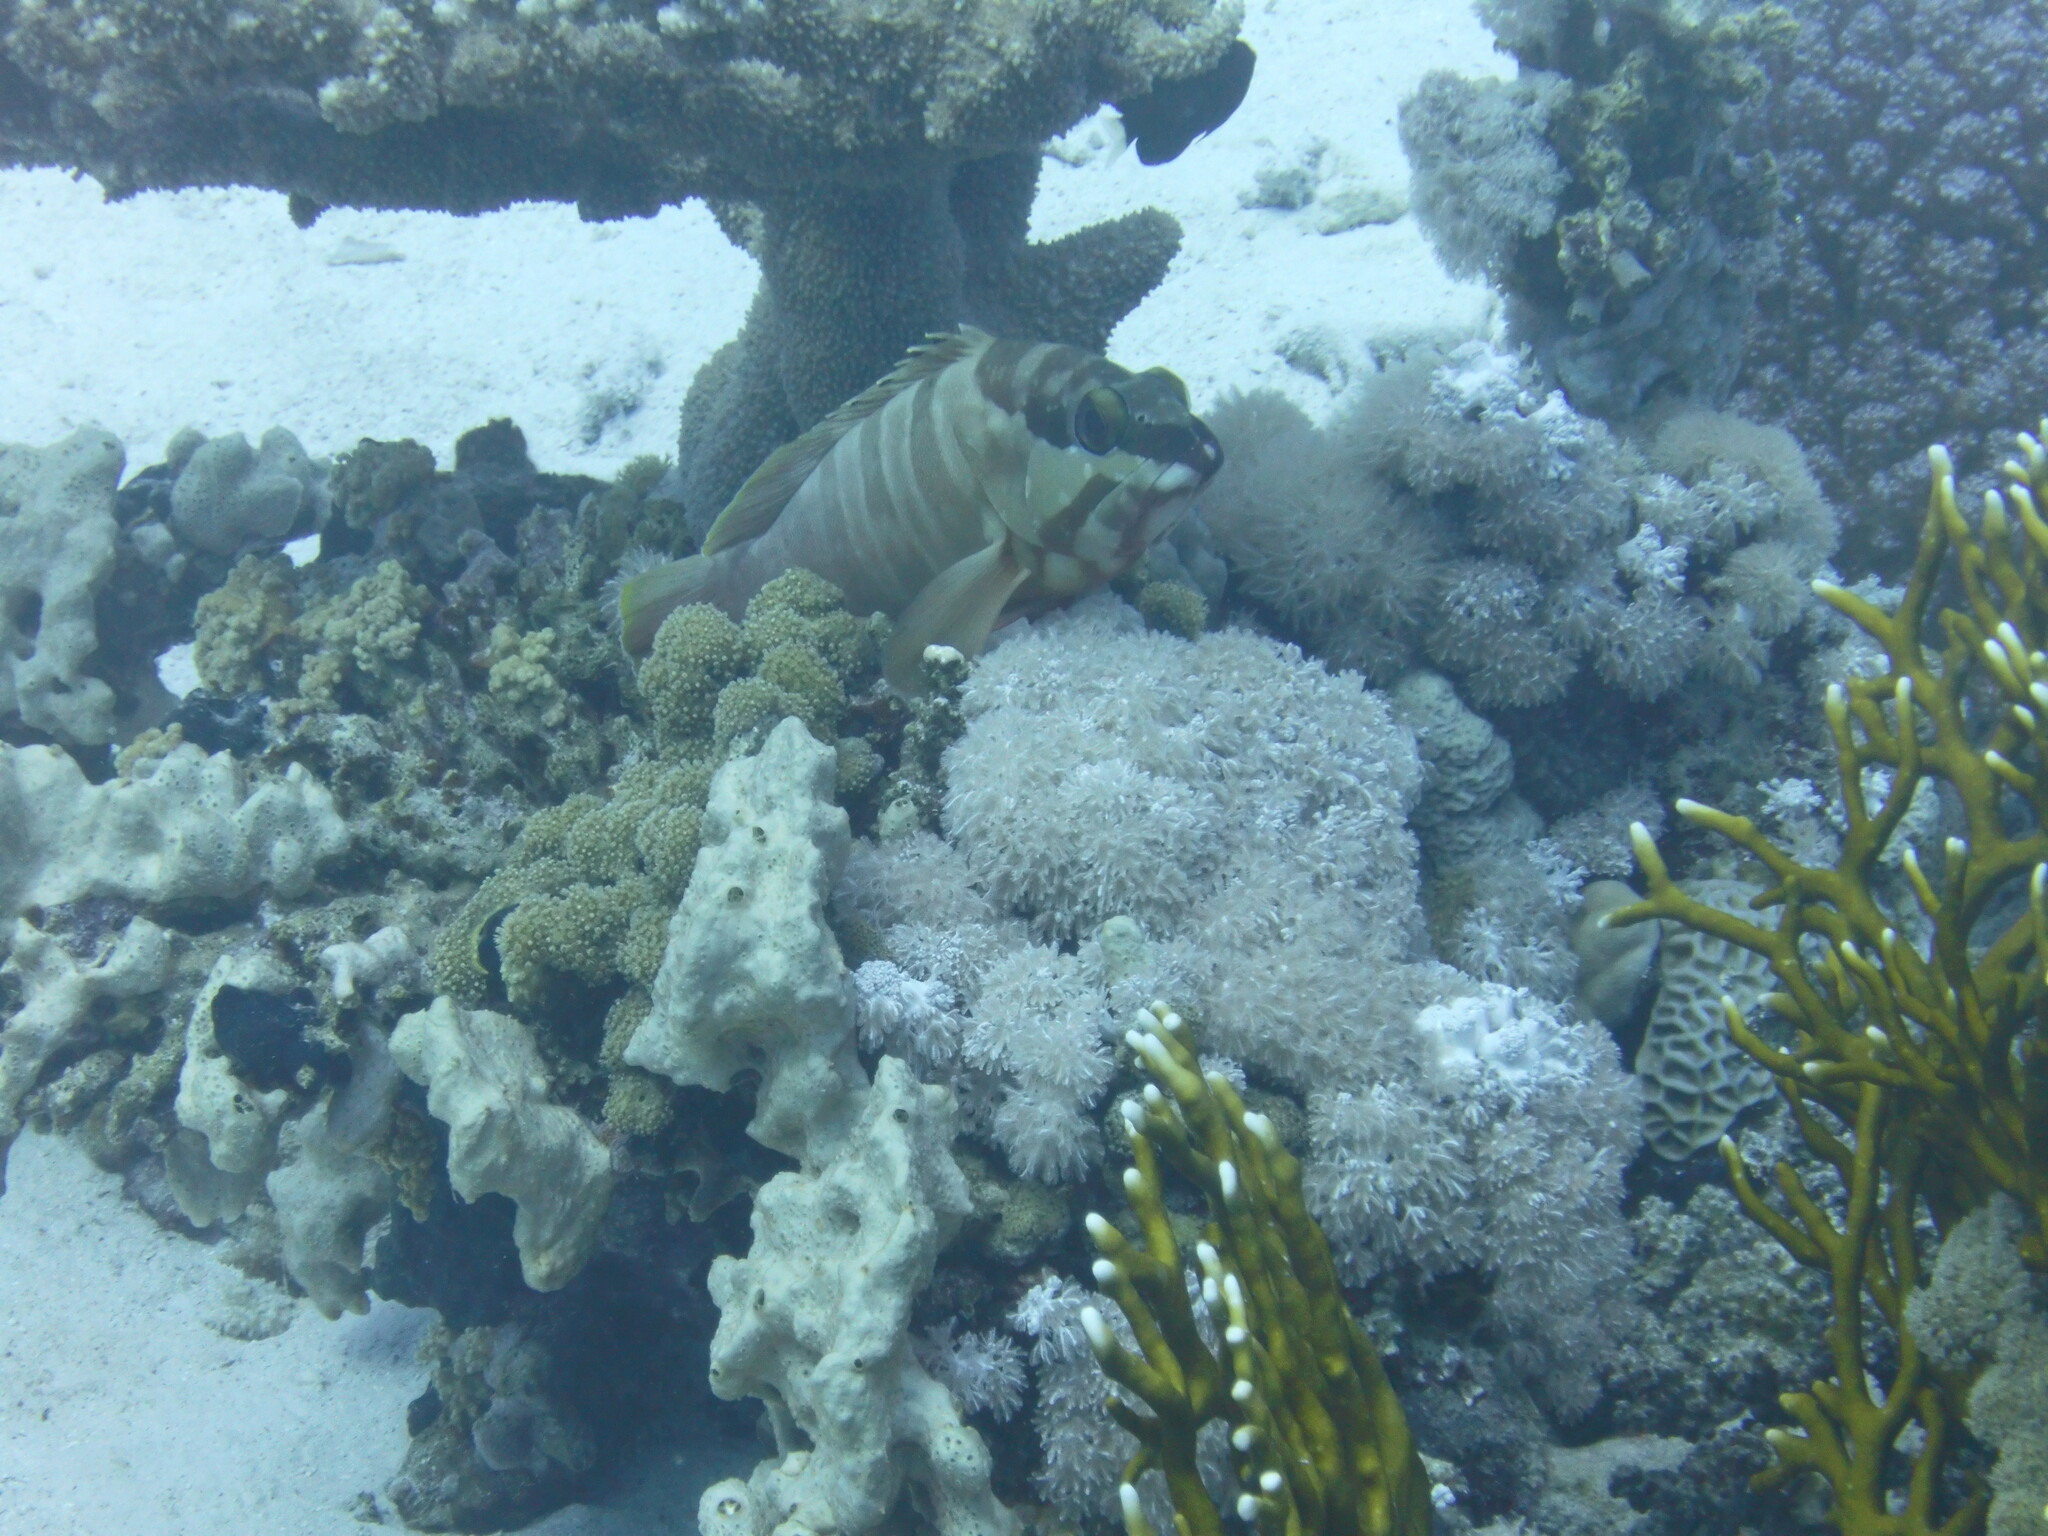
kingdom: Animalia
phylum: Chordata
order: Perciformes
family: Serranidae
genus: Epinephelus
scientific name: Epinephelus fasciatus
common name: Blacktip grouper
